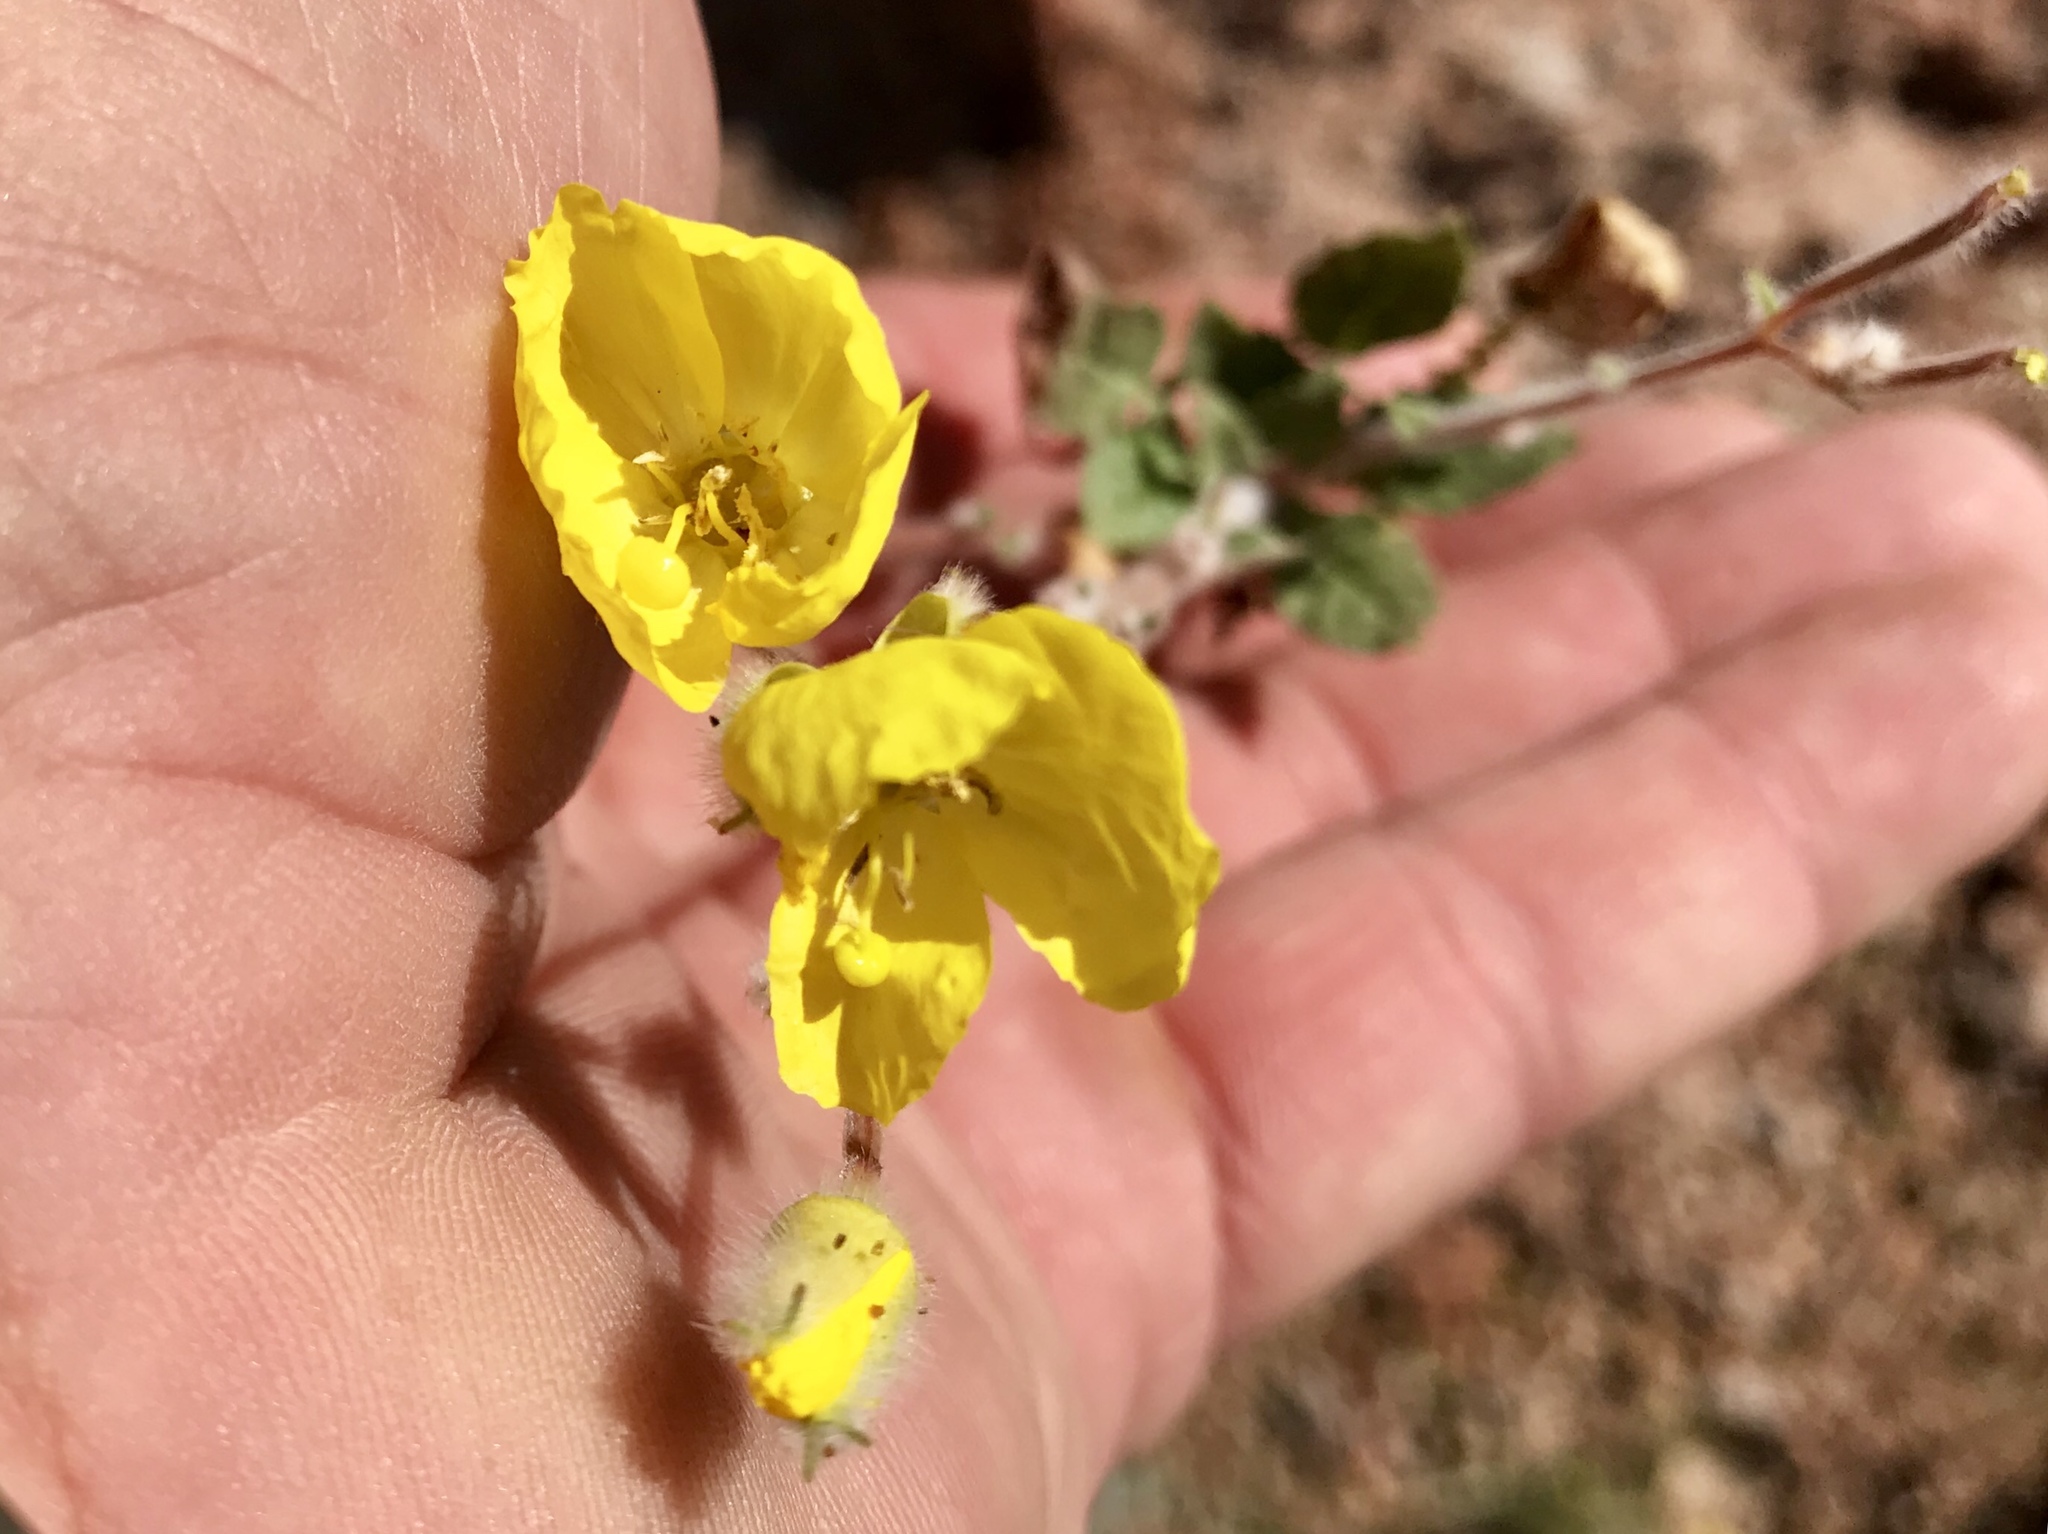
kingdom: Plantae
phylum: Tracheophyta
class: Magnoliopsida
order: Myrtales
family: Onagraceae
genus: Chylismia
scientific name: Chylismia brevipes
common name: Yellow cups
